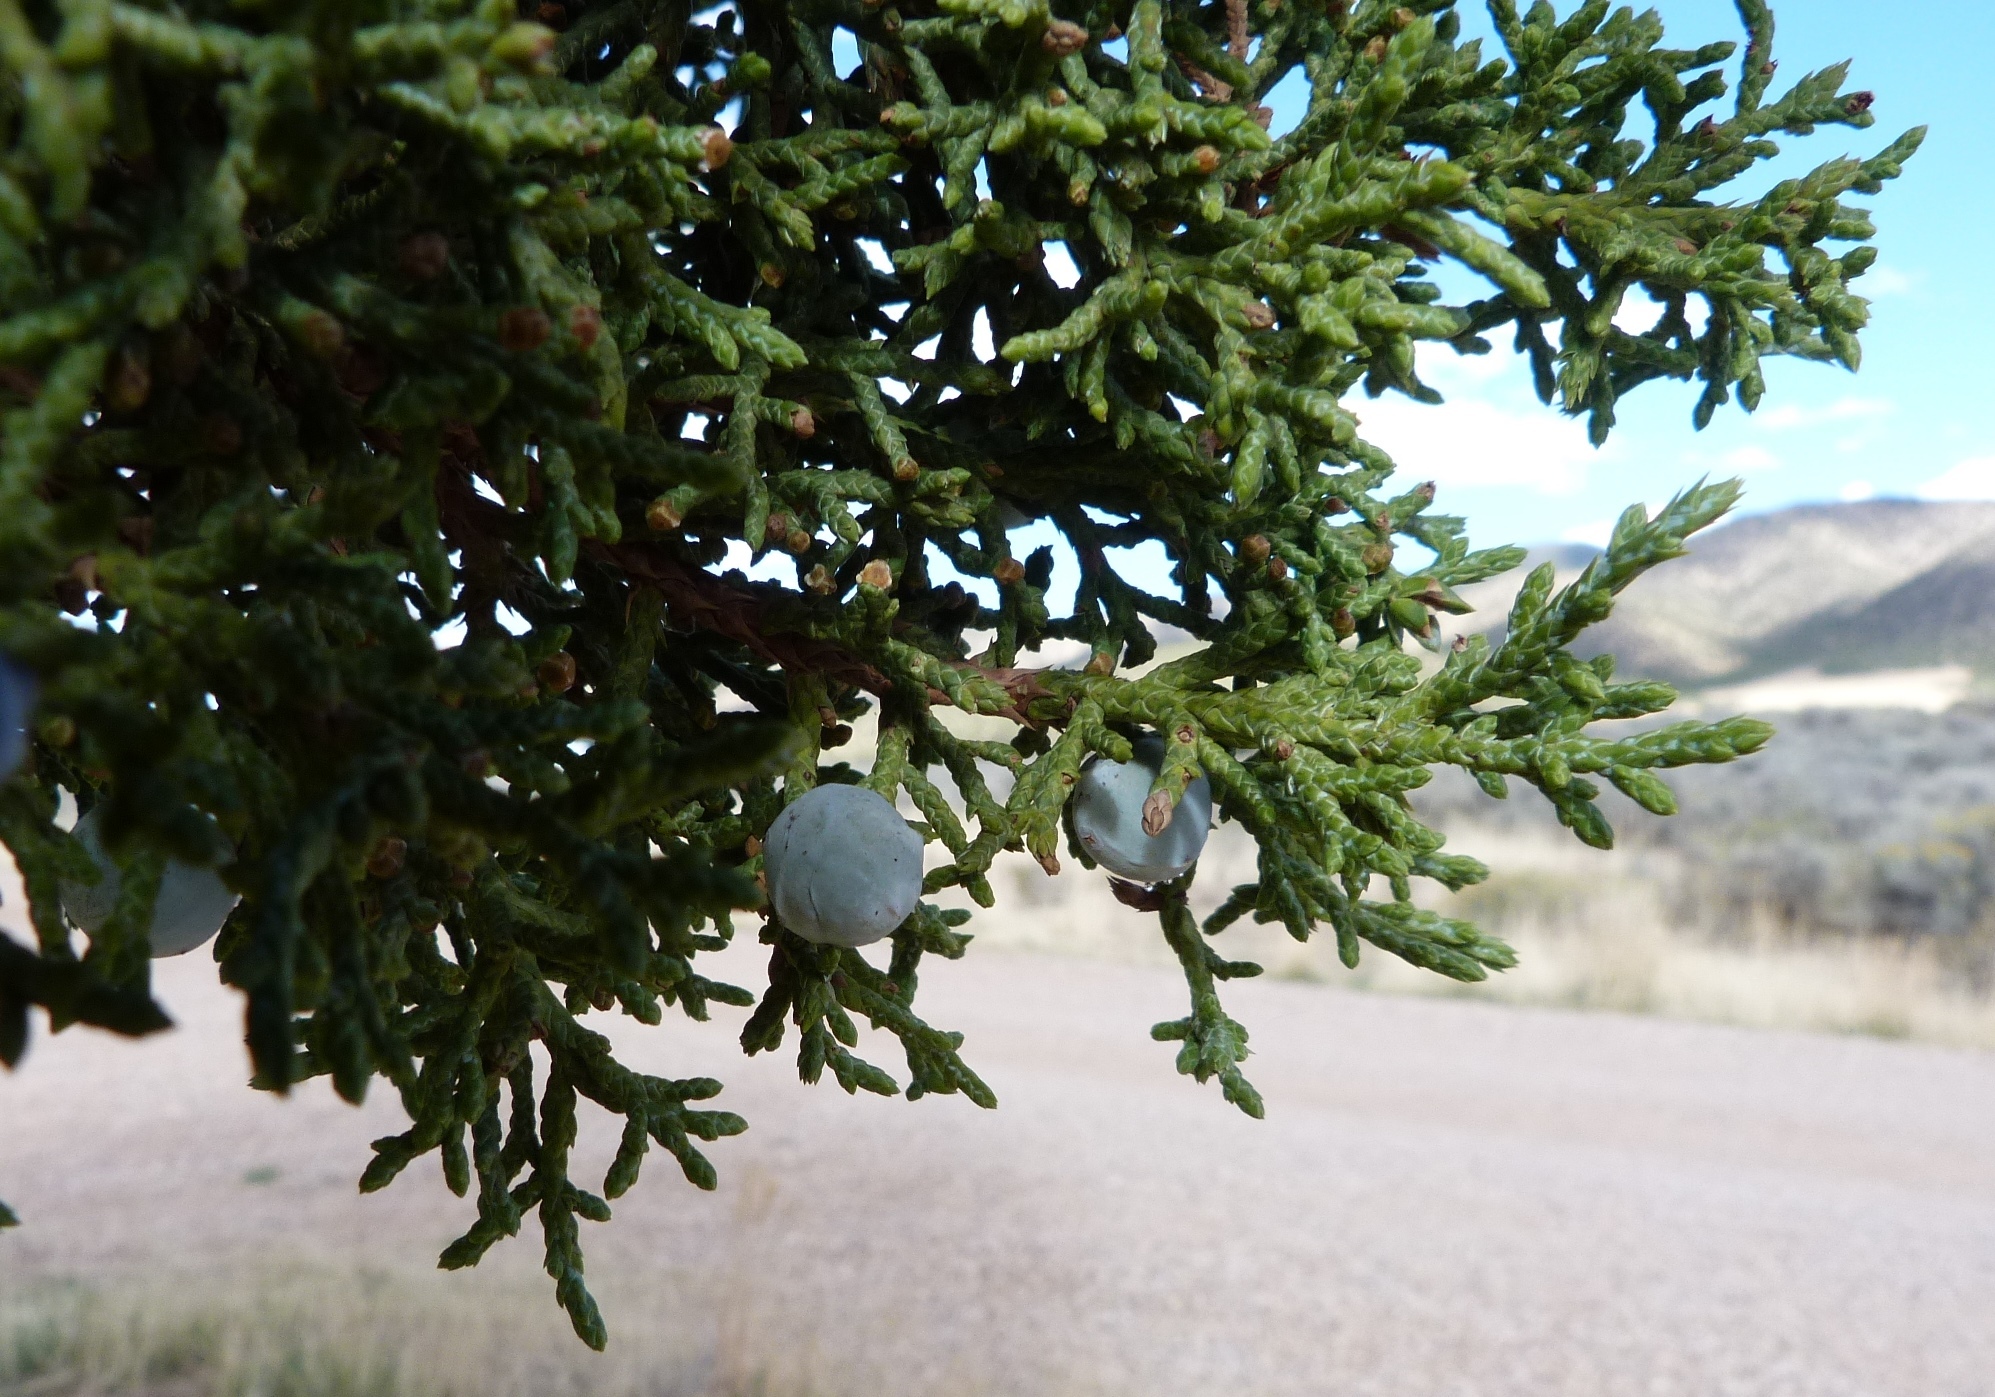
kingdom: Plantae
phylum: Tracheophyta
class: Pinopsida
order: Pinales
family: Cupressaceae
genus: Juniperus
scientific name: Juniperus osteosperma
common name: Utah juniper
